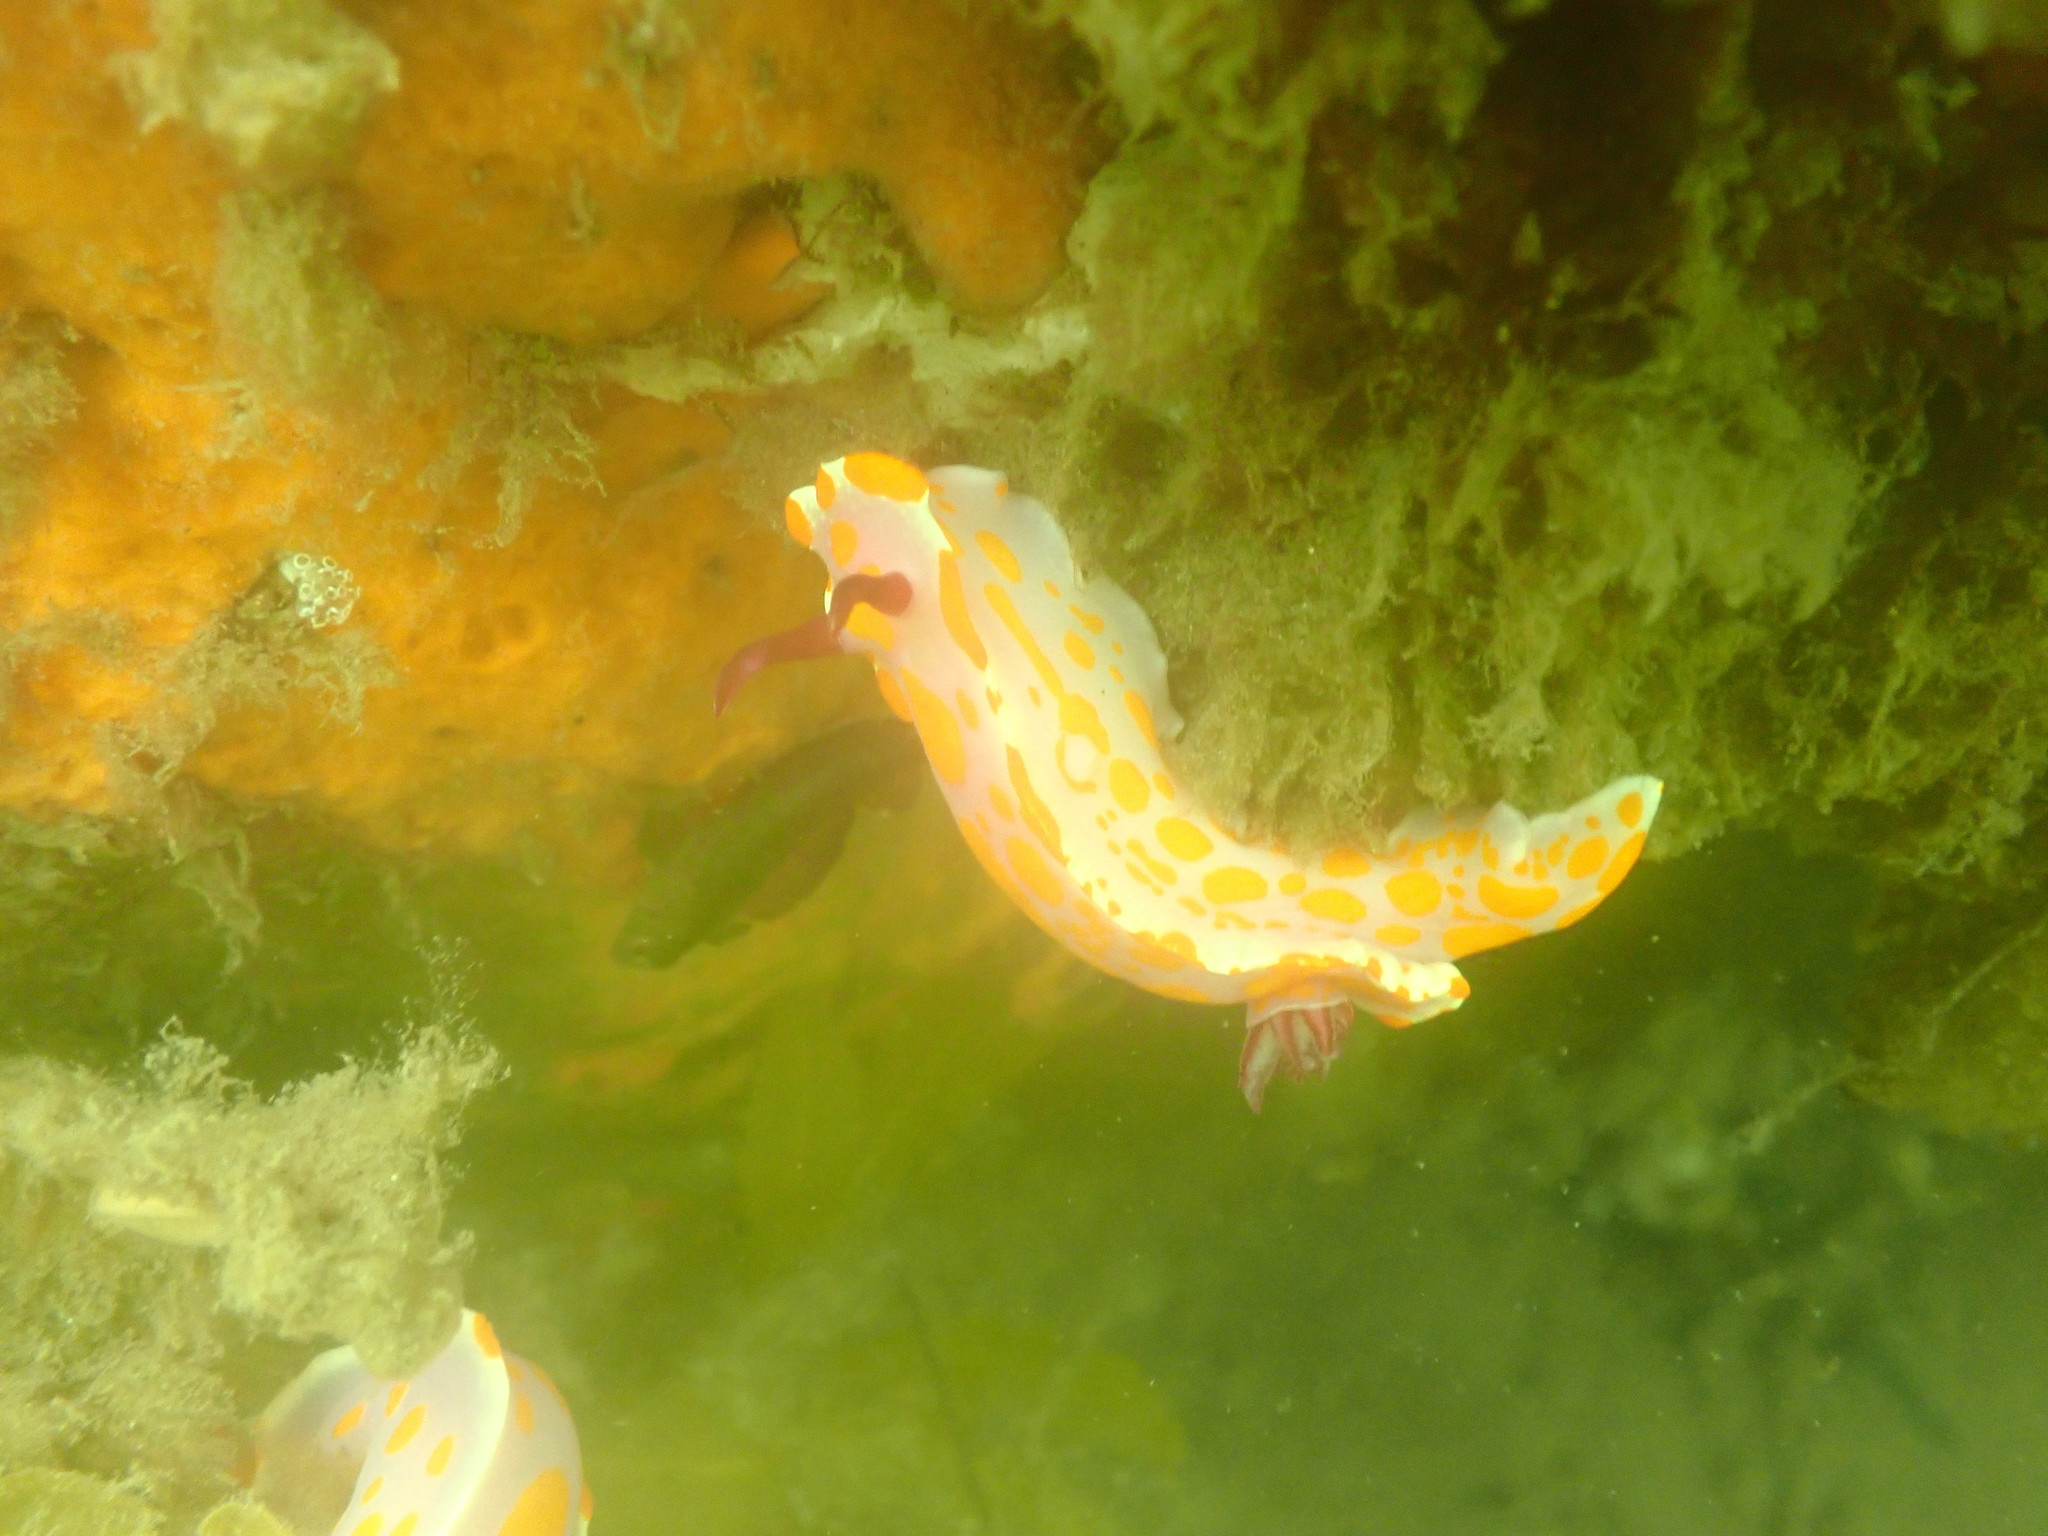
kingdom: Animalia
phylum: Mollusca
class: Gastropoda
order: Nudibranchia
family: Chromodorididae
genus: Ceratosoma
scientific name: Ceratosoma amoenum
